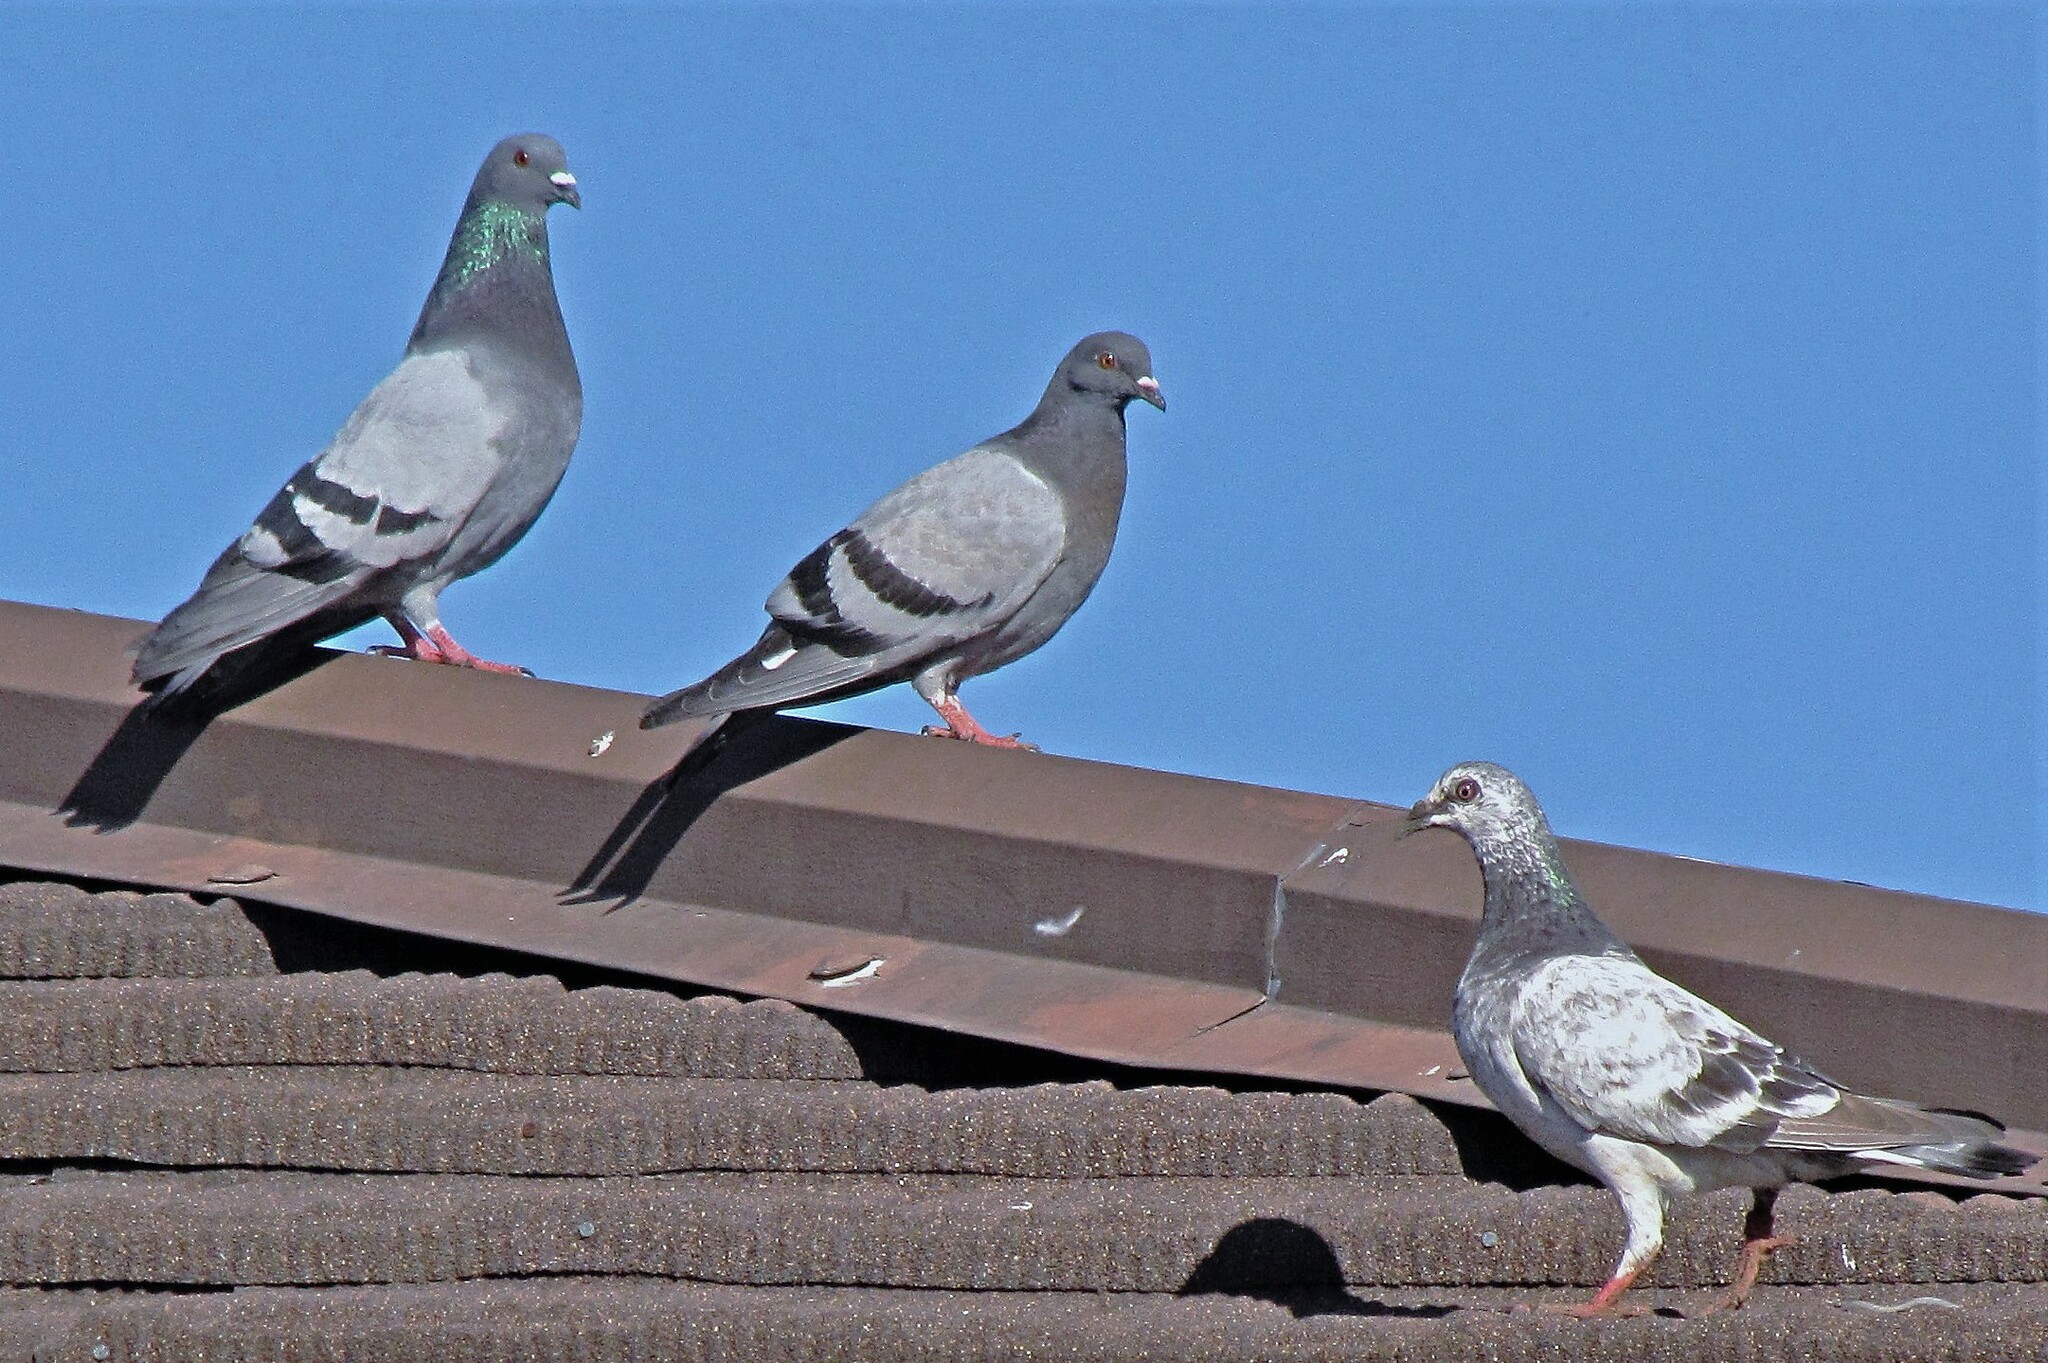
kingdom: Animalia
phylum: Chordata
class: Aves
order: Columbiformes
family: Columbidae
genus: Columba
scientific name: Columba livia
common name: Rock pigeon
